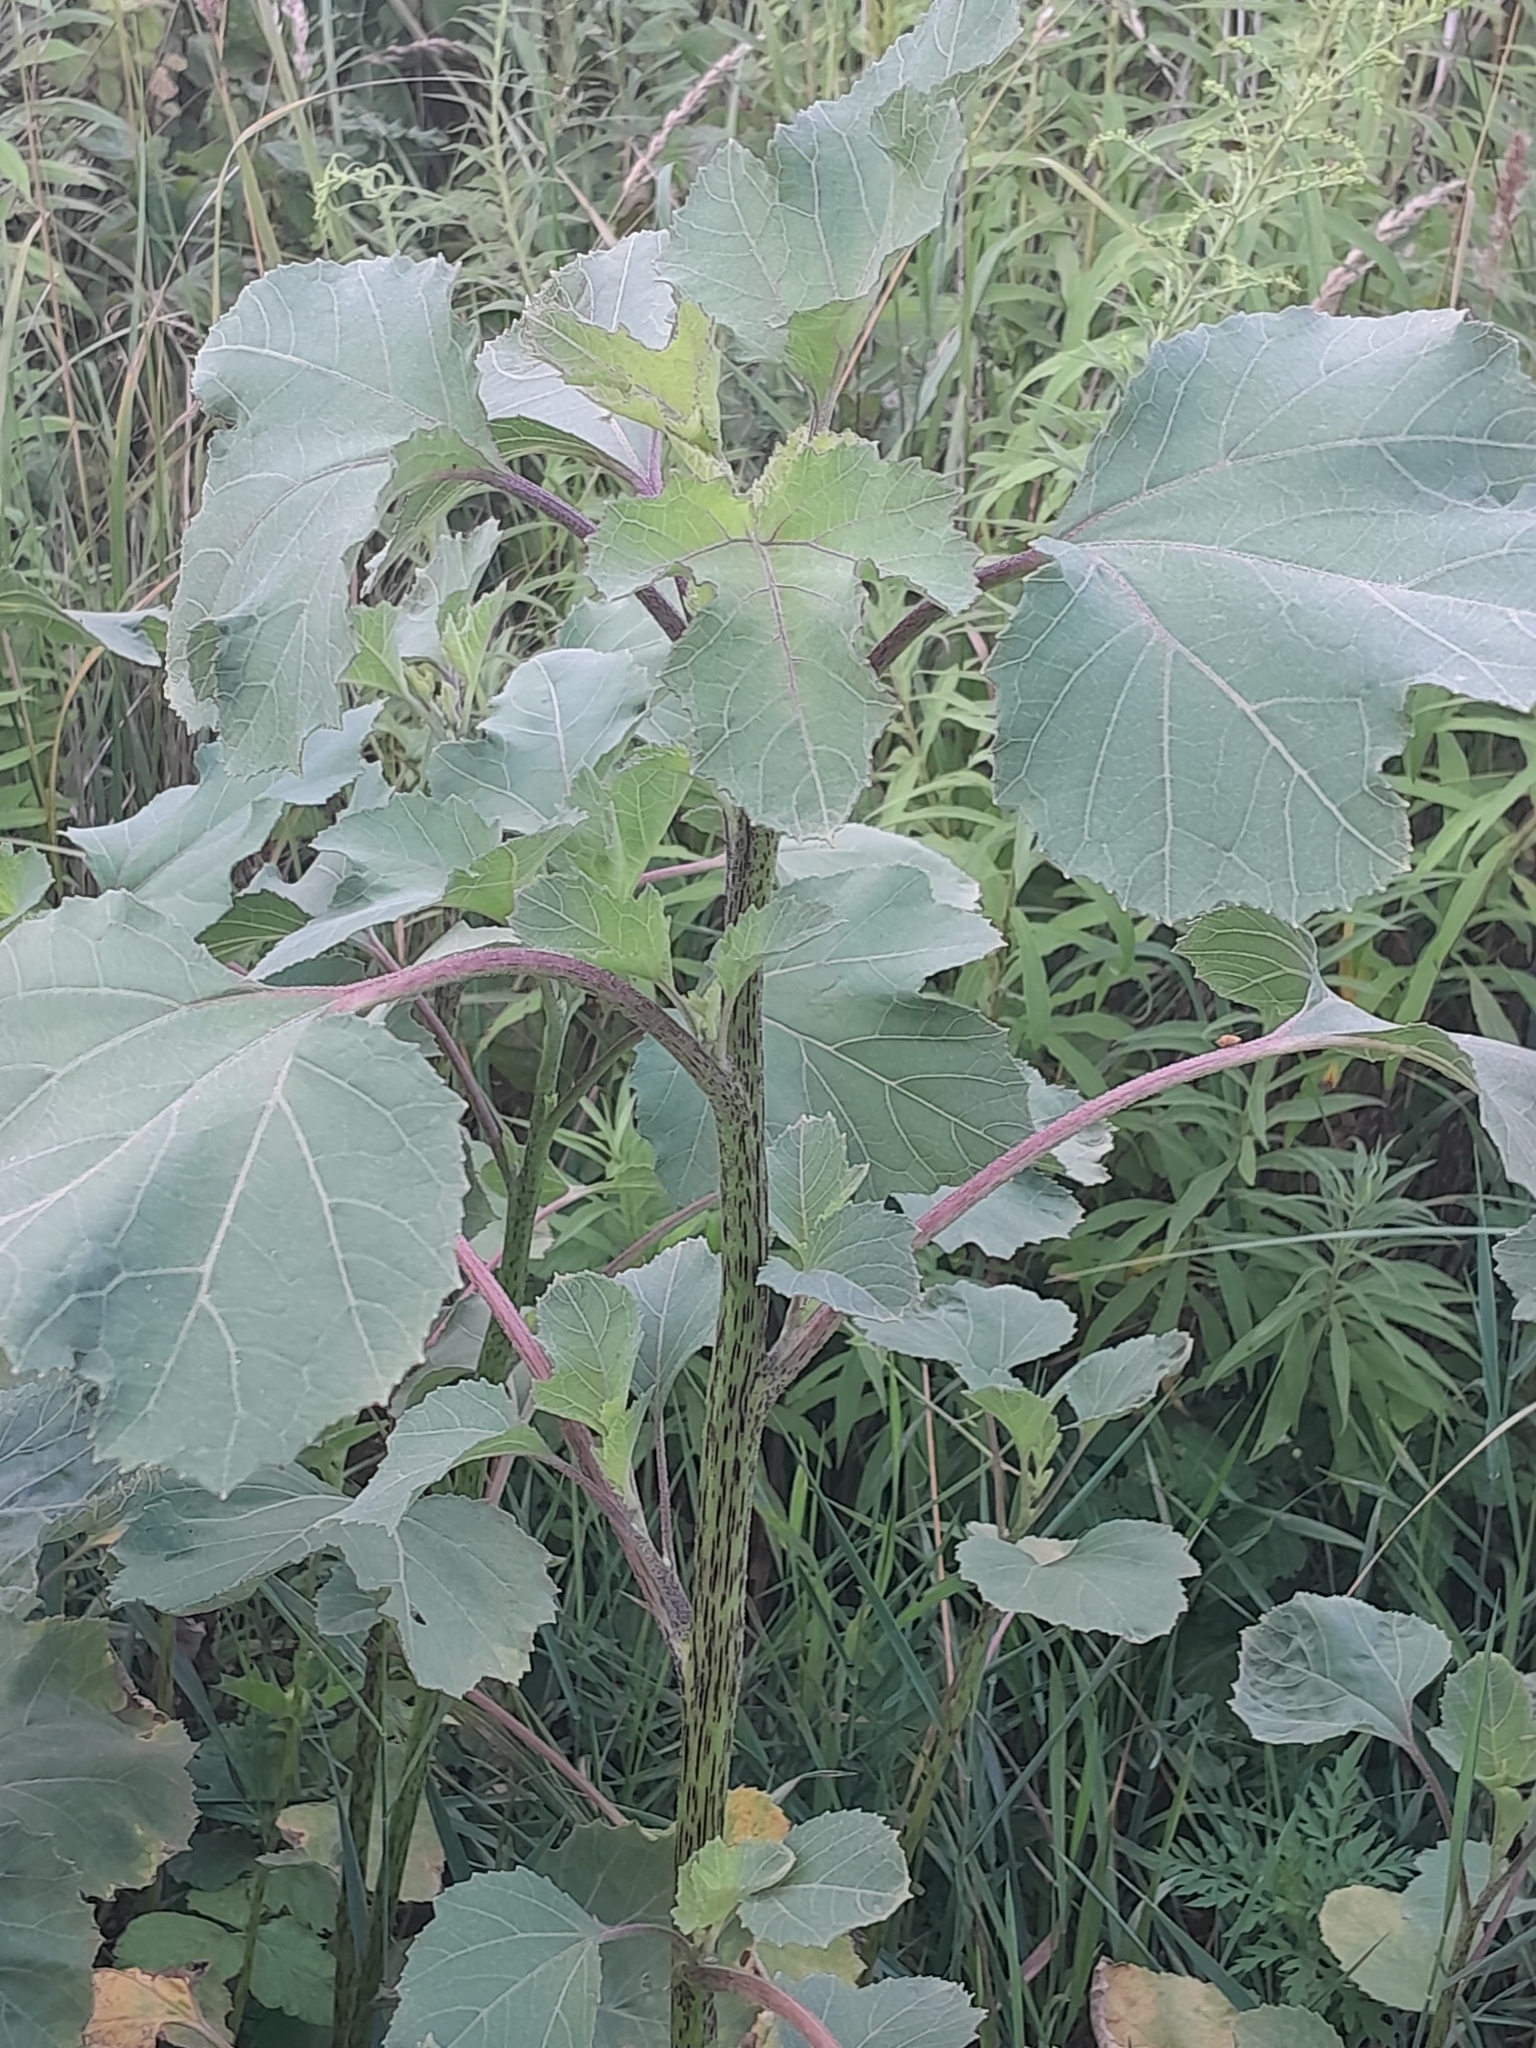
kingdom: Plantae
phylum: Tracheophyta
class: Magnoliopsida
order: Asterales
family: Asteraceae
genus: Xanthium
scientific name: Xanthium strumarium
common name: Rough cocklebur
